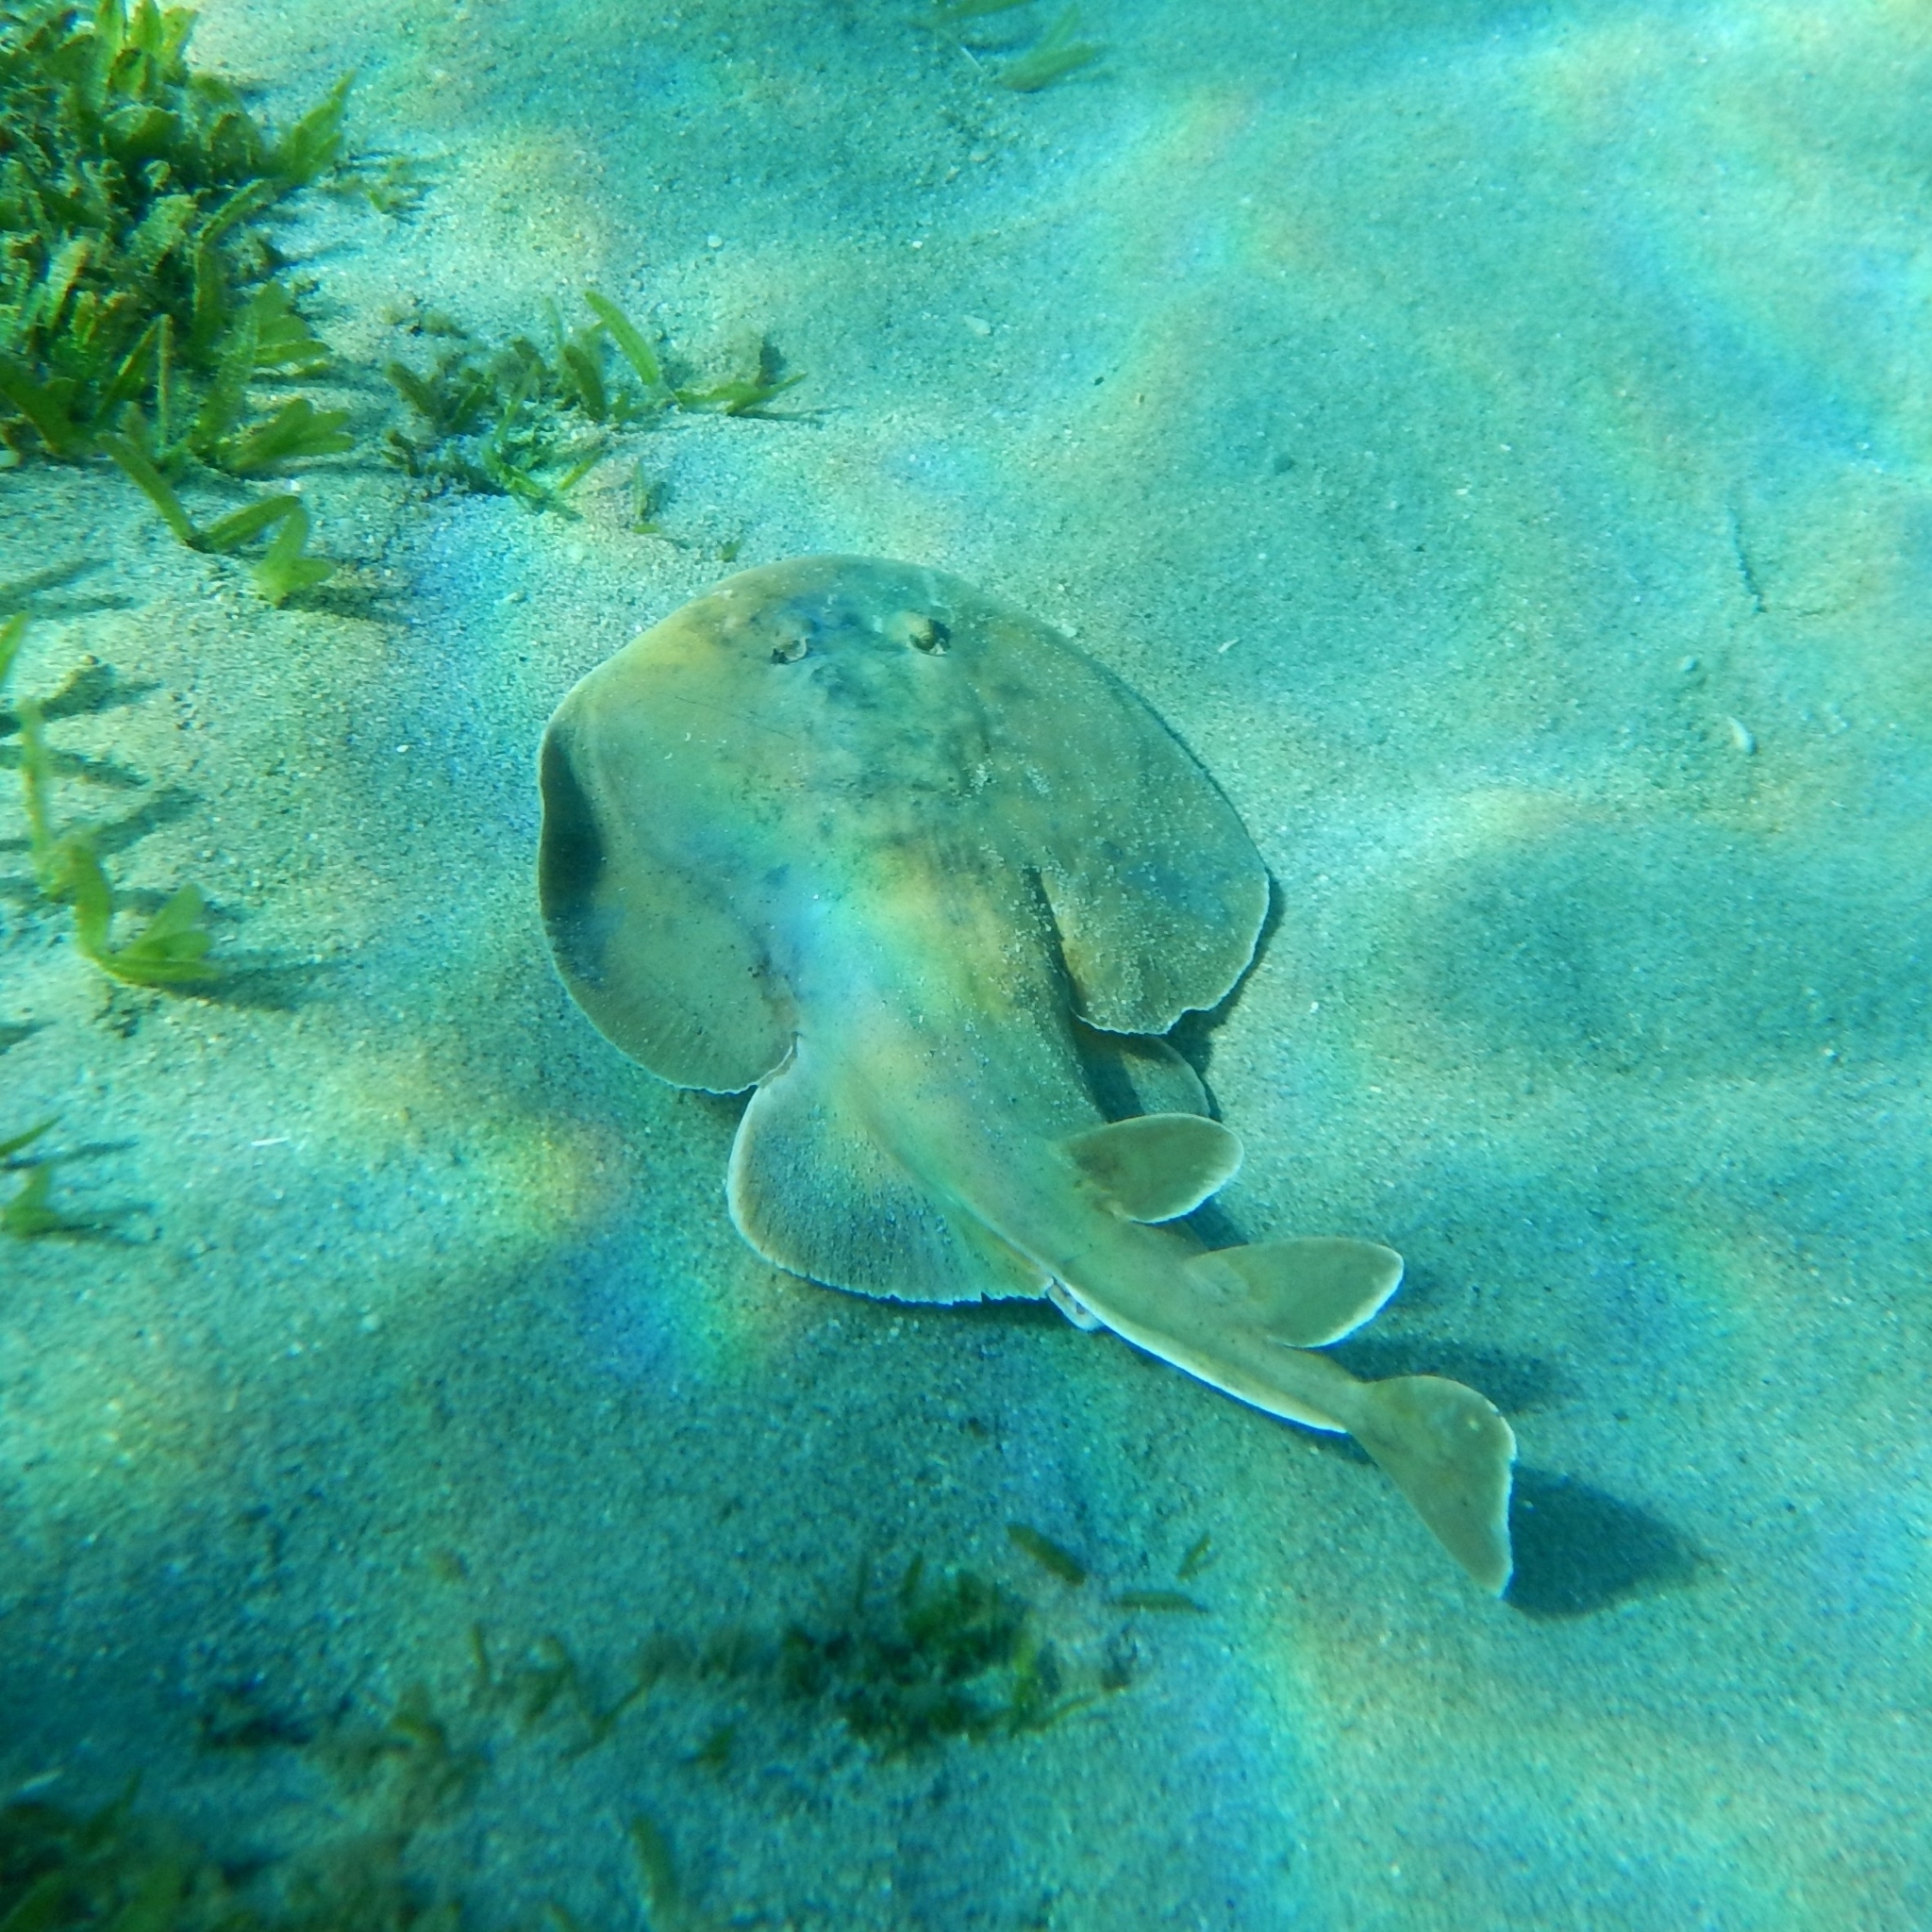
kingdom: Animalia
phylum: Chordata
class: Elasmobranchii
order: Torpediniformes
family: Narcinidae
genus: Narcine
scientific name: Narcine bancroftii
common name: Lesser electric ray
